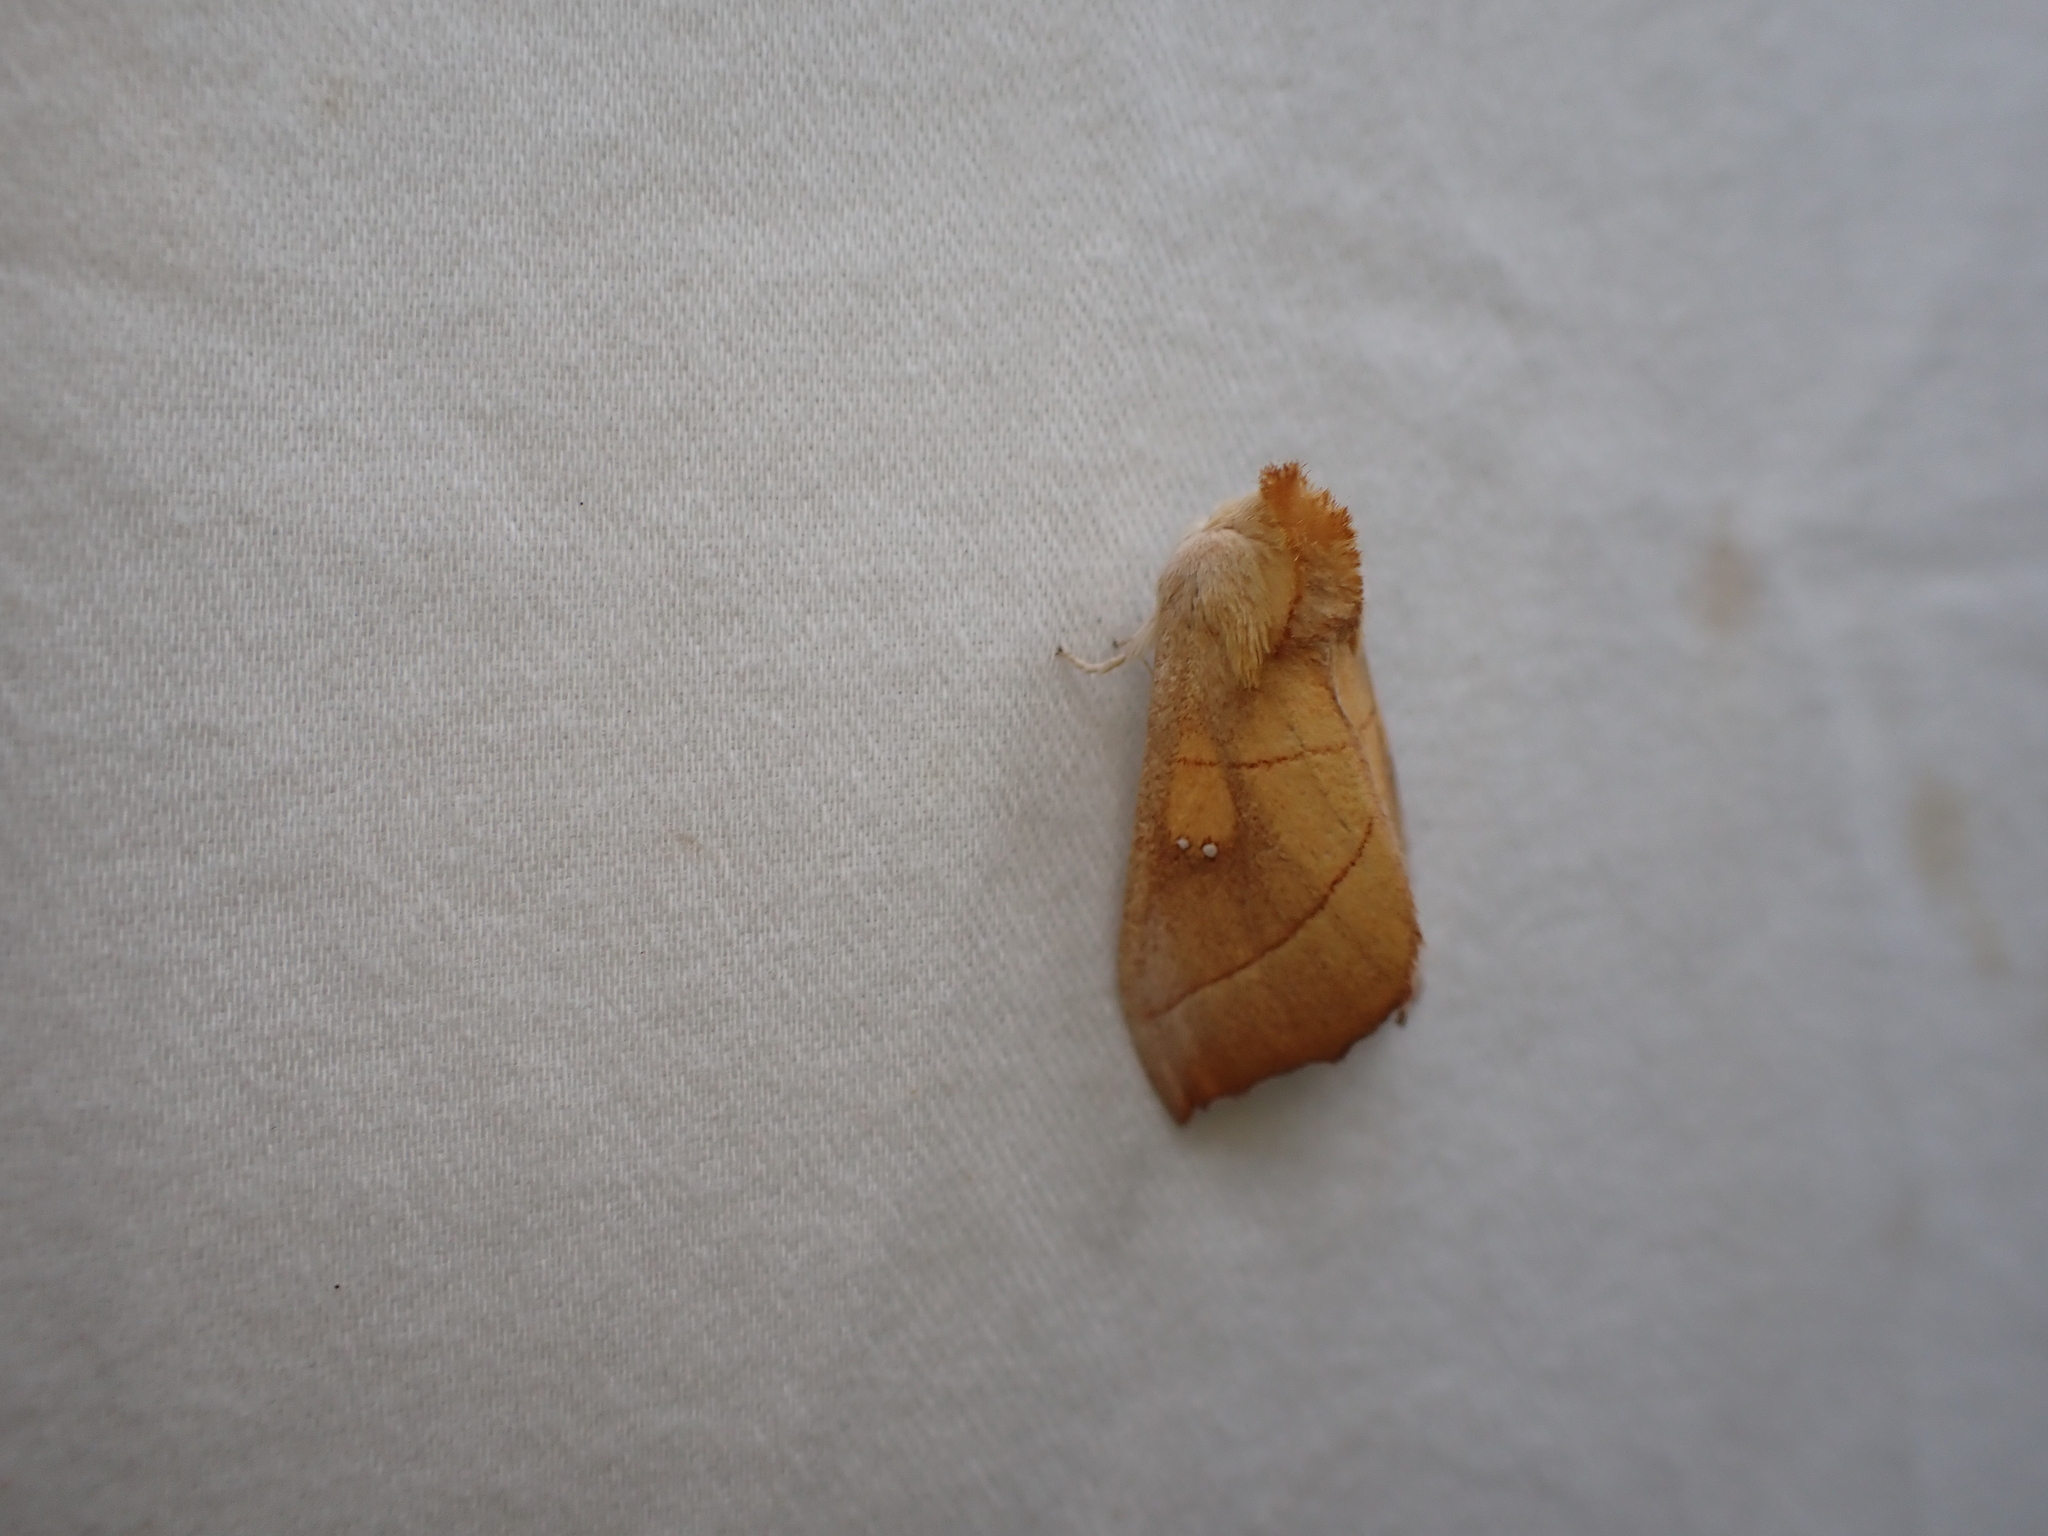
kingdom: Animalia
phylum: Arthropoda
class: Insecta
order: Lepidoptera
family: Notodontidae
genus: Nadata
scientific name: Nadata gibbosa
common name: White-dotted prominent
